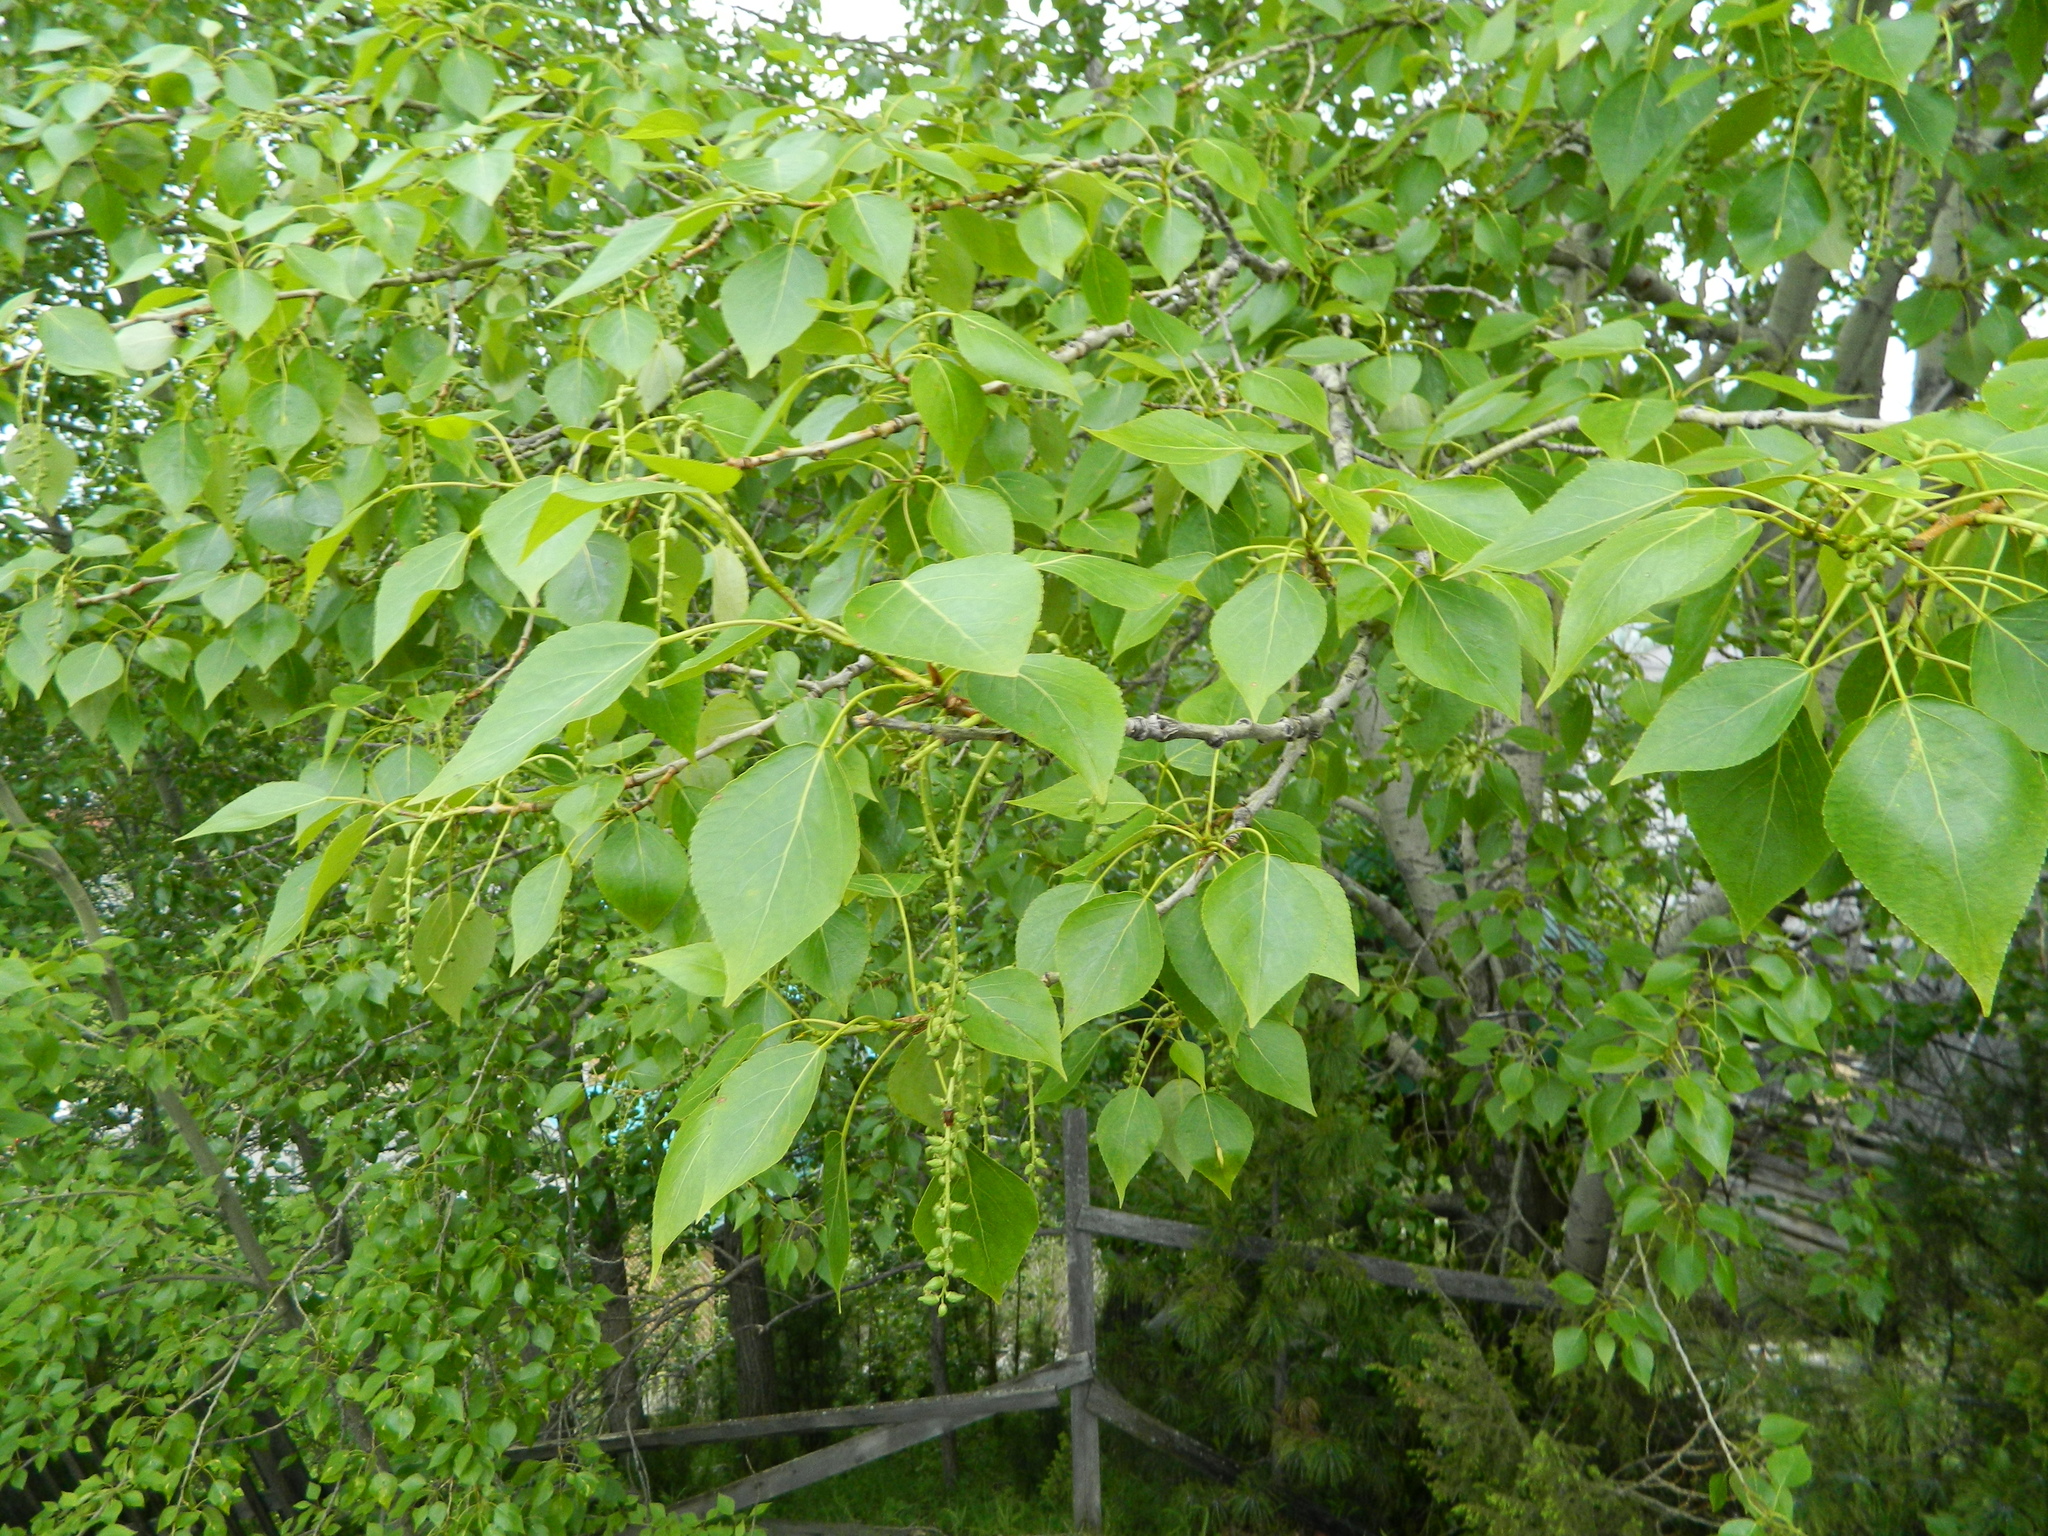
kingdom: Plantae
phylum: Tracheophyta
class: Magnoliopsida
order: Malpighiales
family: Salicaceae
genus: Populus
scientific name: Populus sibirica
